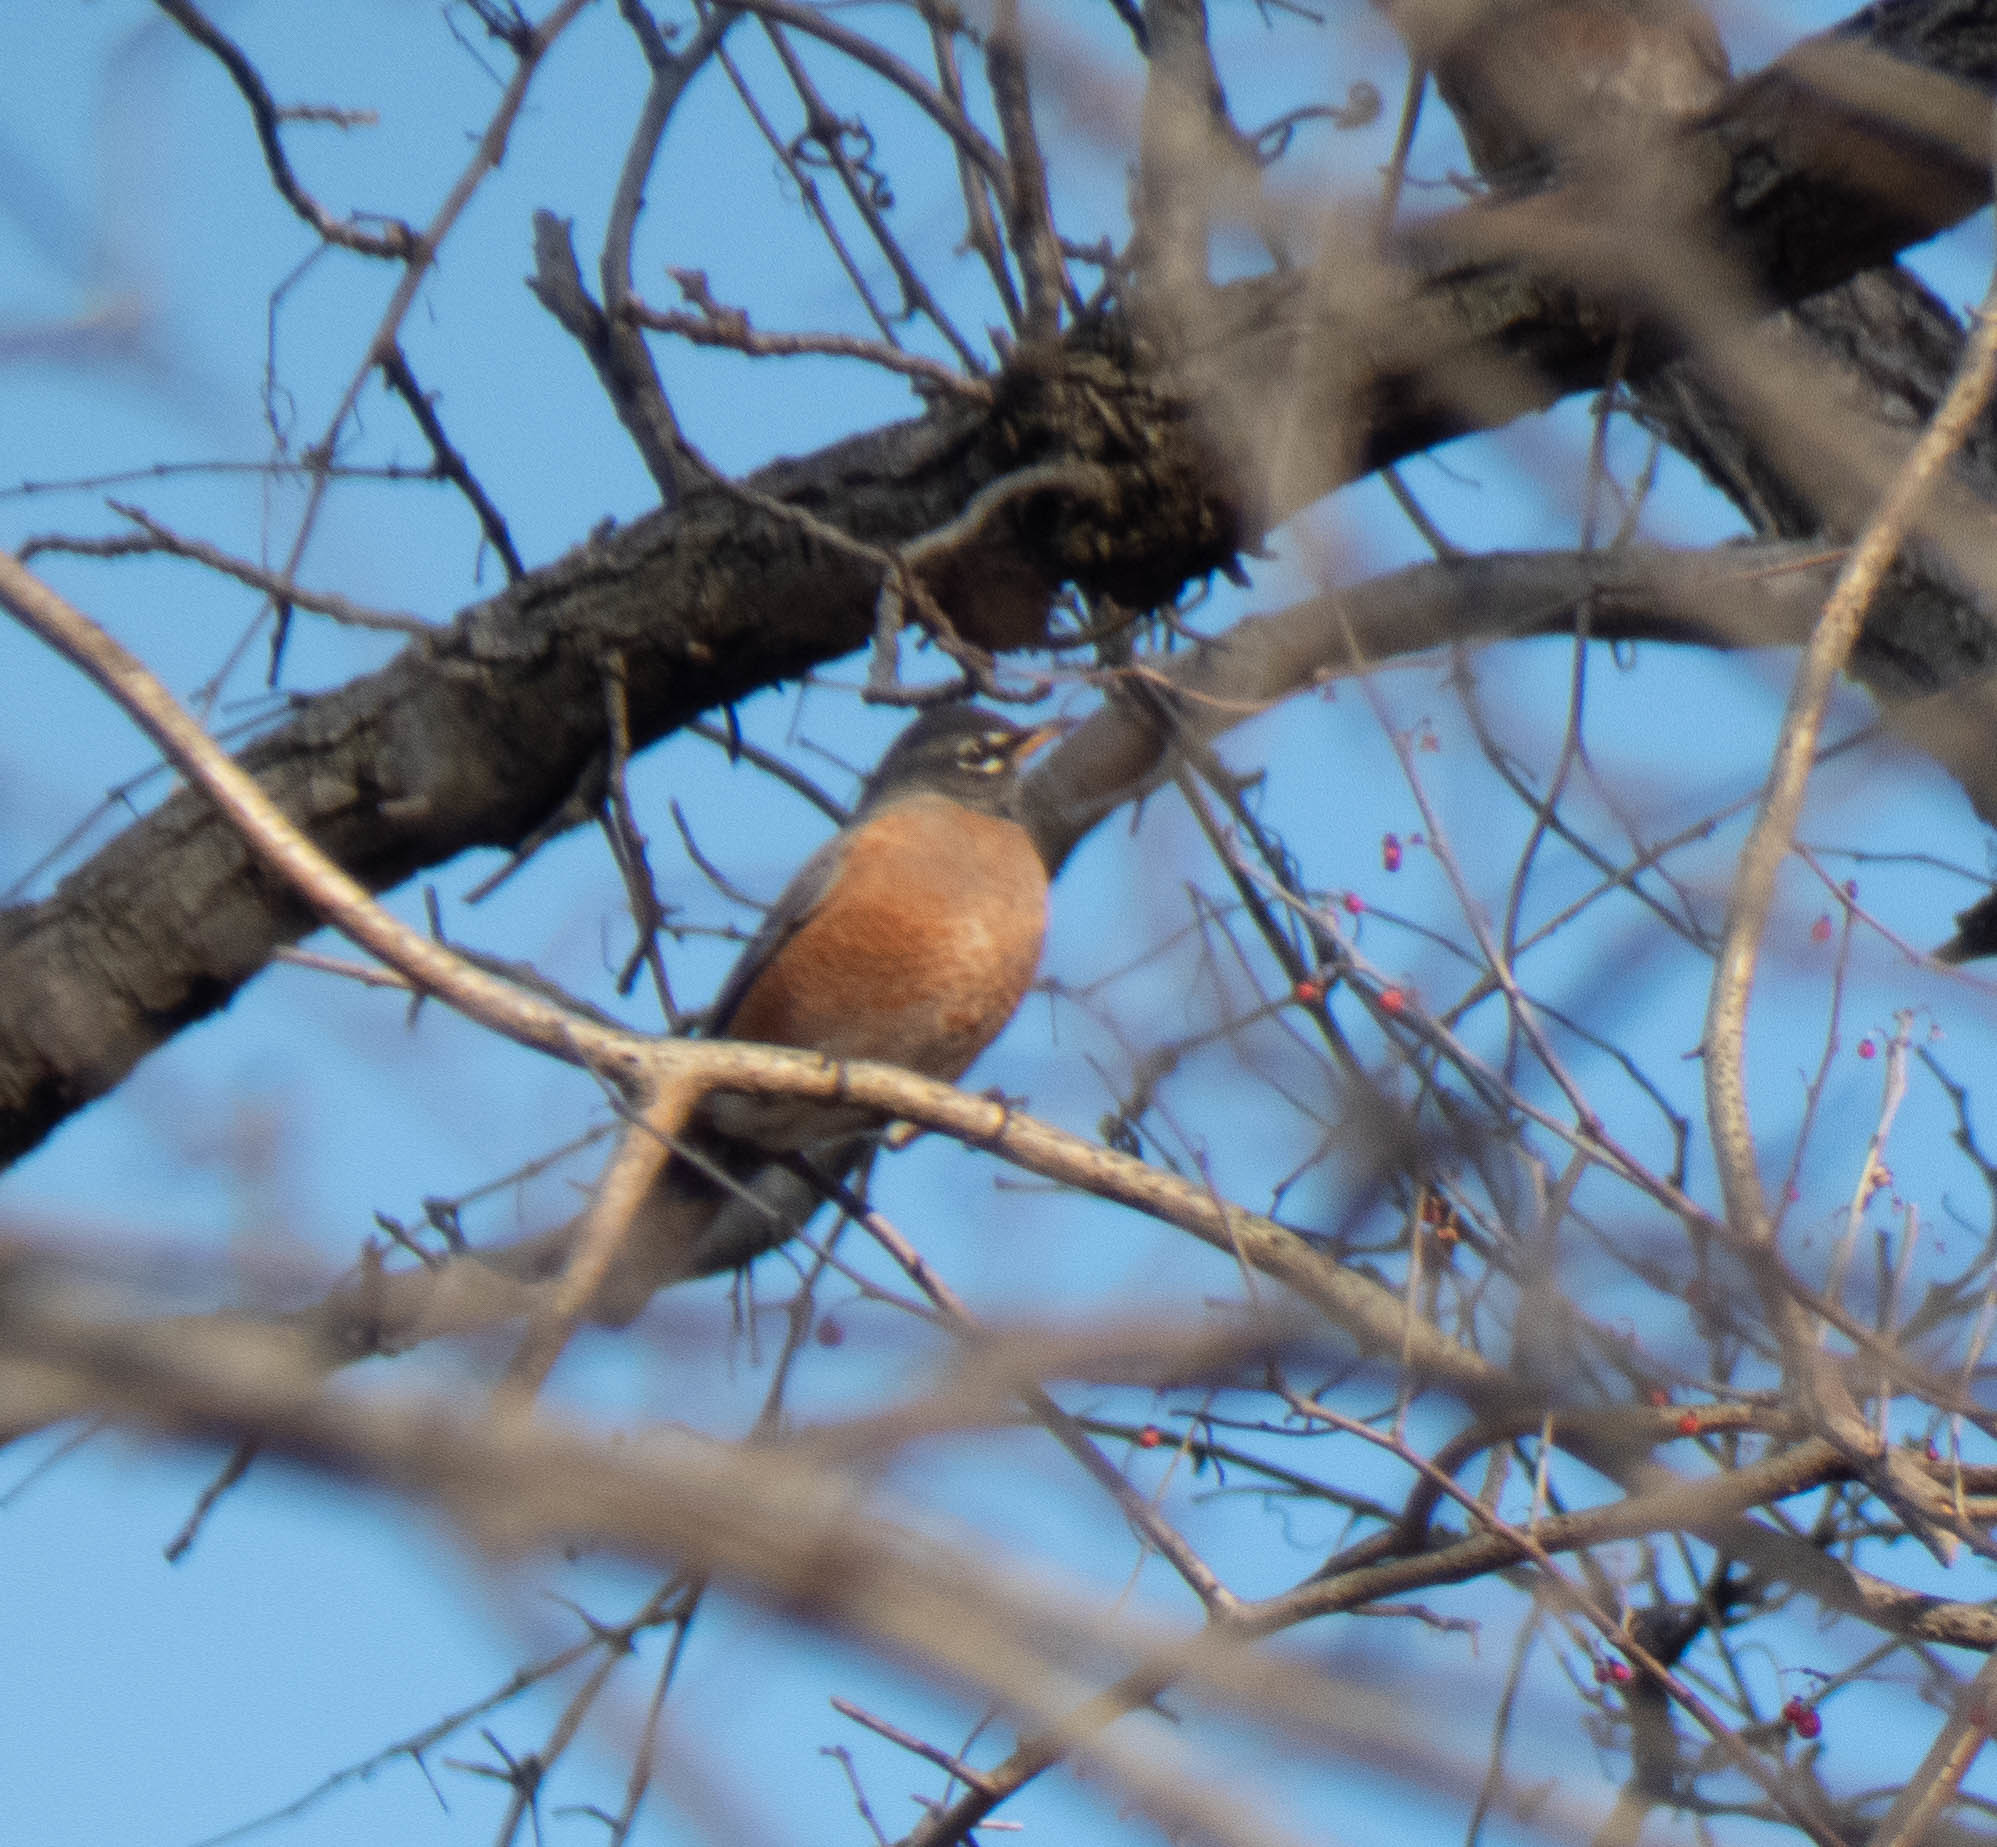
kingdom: Animalia
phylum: Chordata
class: Aves
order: Passeriformes
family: Turdidae
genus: Turdus
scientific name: Turdus migratorius
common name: American robin
